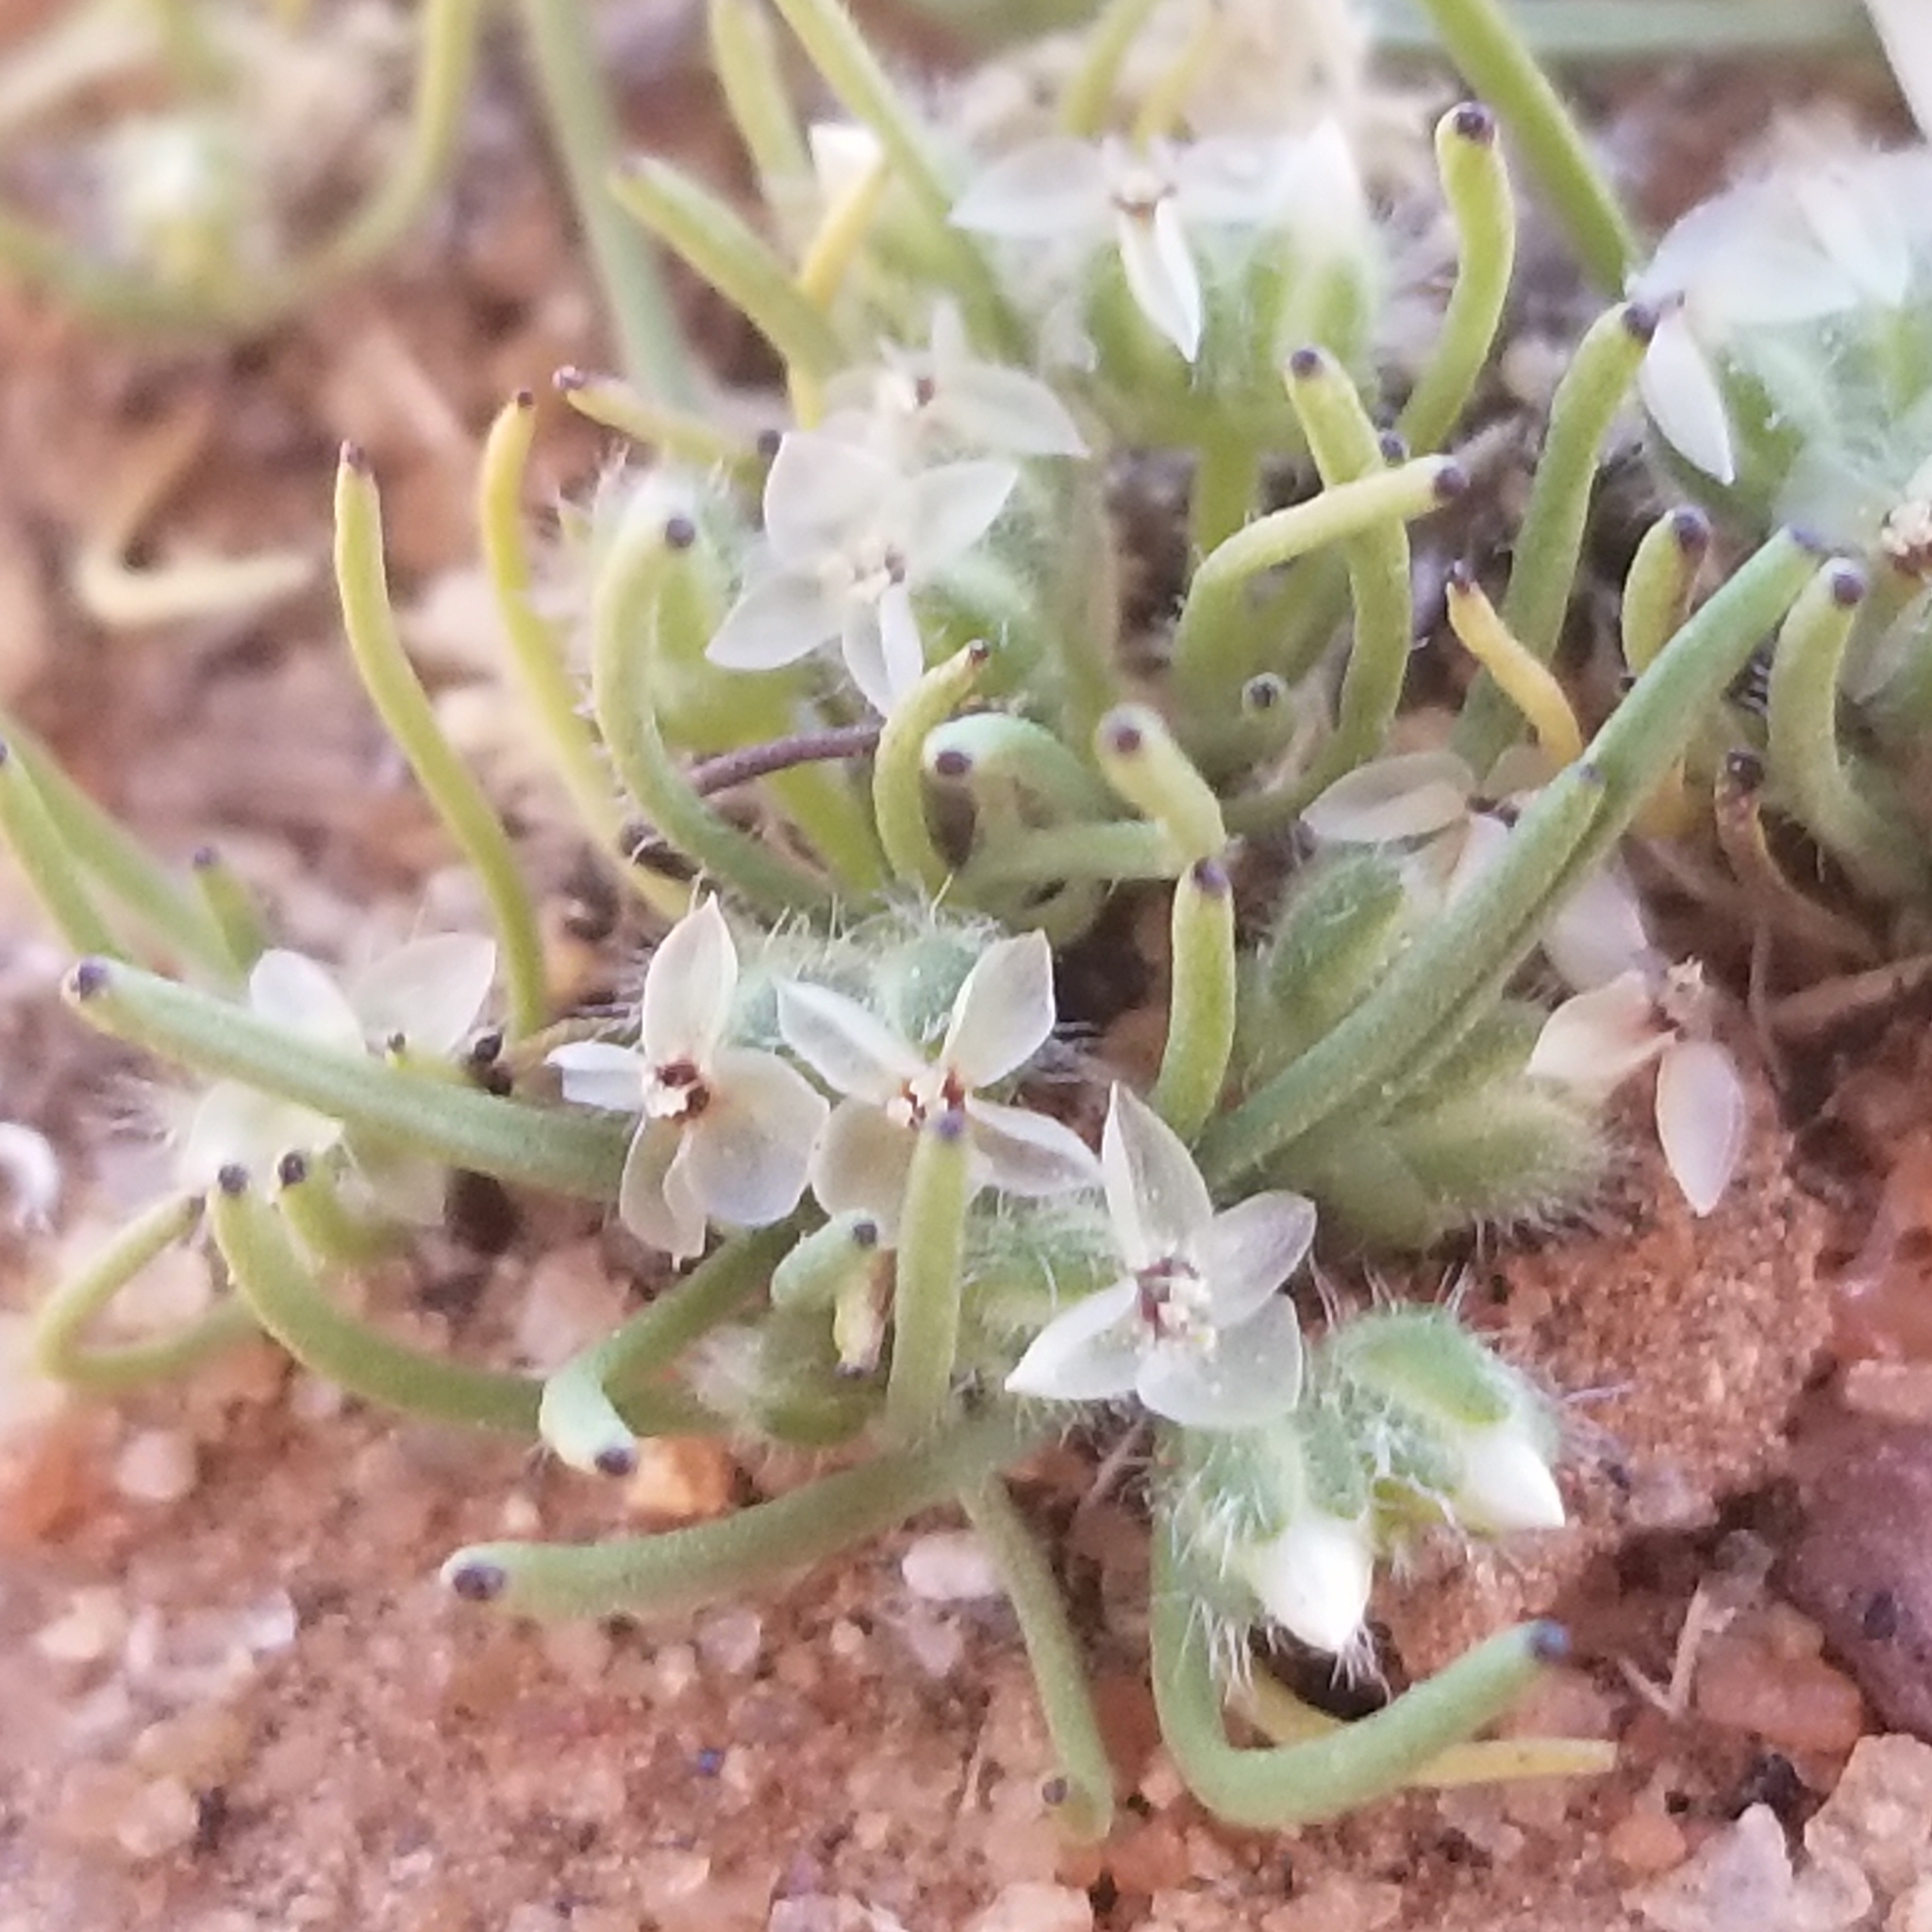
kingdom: Plantae
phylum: Tracheophyta
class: Magnoliopsida
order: Lamiales
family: Plantaginaceae
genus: Plantago
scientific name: Plantago erecta
